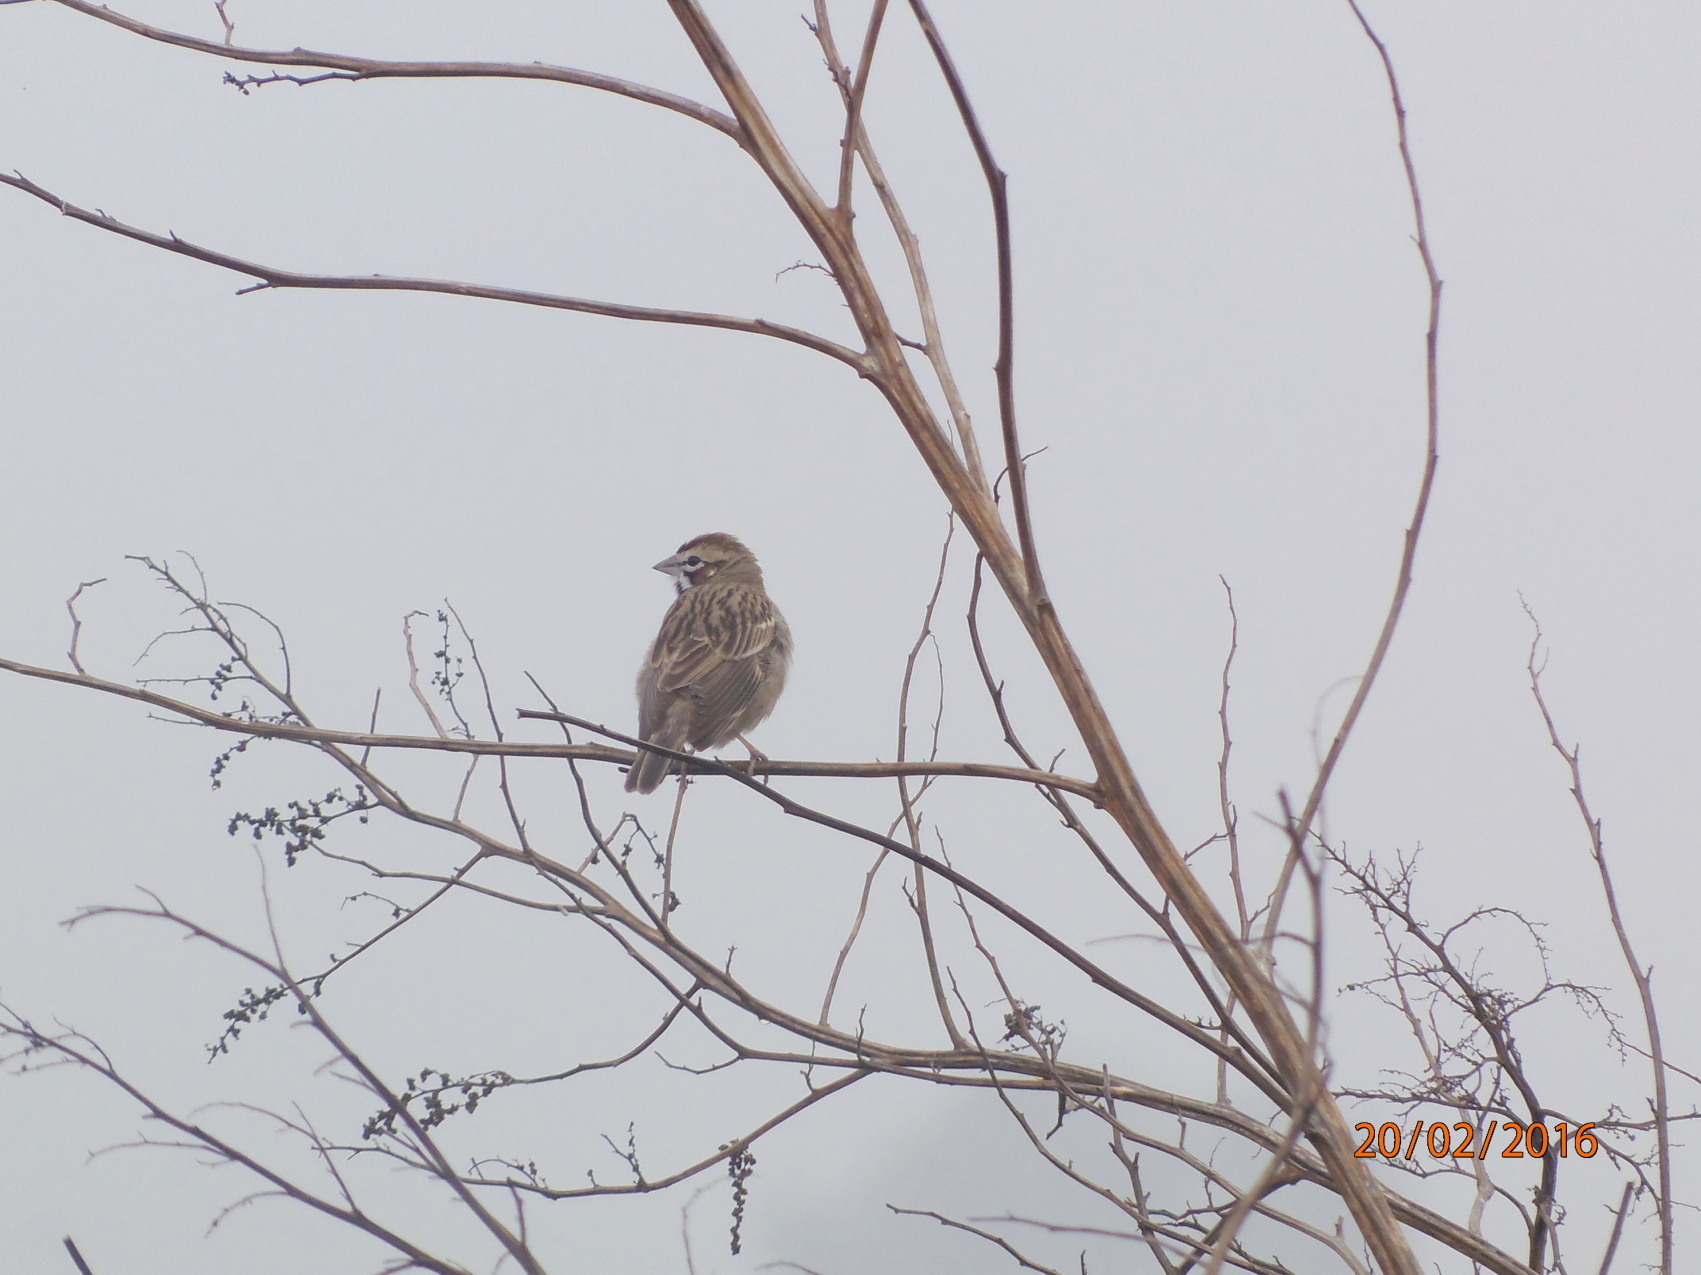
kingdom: Animalia
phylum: Chordata
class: Aves
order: Passeriformes
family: Passerellidae
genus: Chondestes
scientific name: Chondestes grammacus
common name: Lark sparrow
